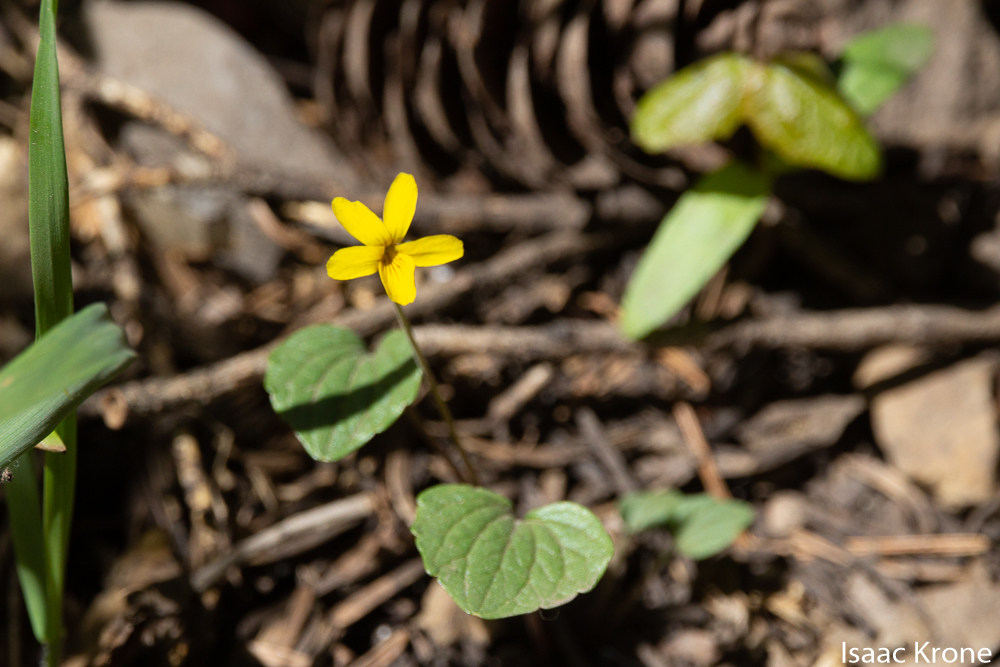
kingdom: Plantae
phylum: Tracheophyta
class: Magnoliopsida
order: Malpighiales
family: Violaceae
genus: Viola
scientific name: Viola utahensis
